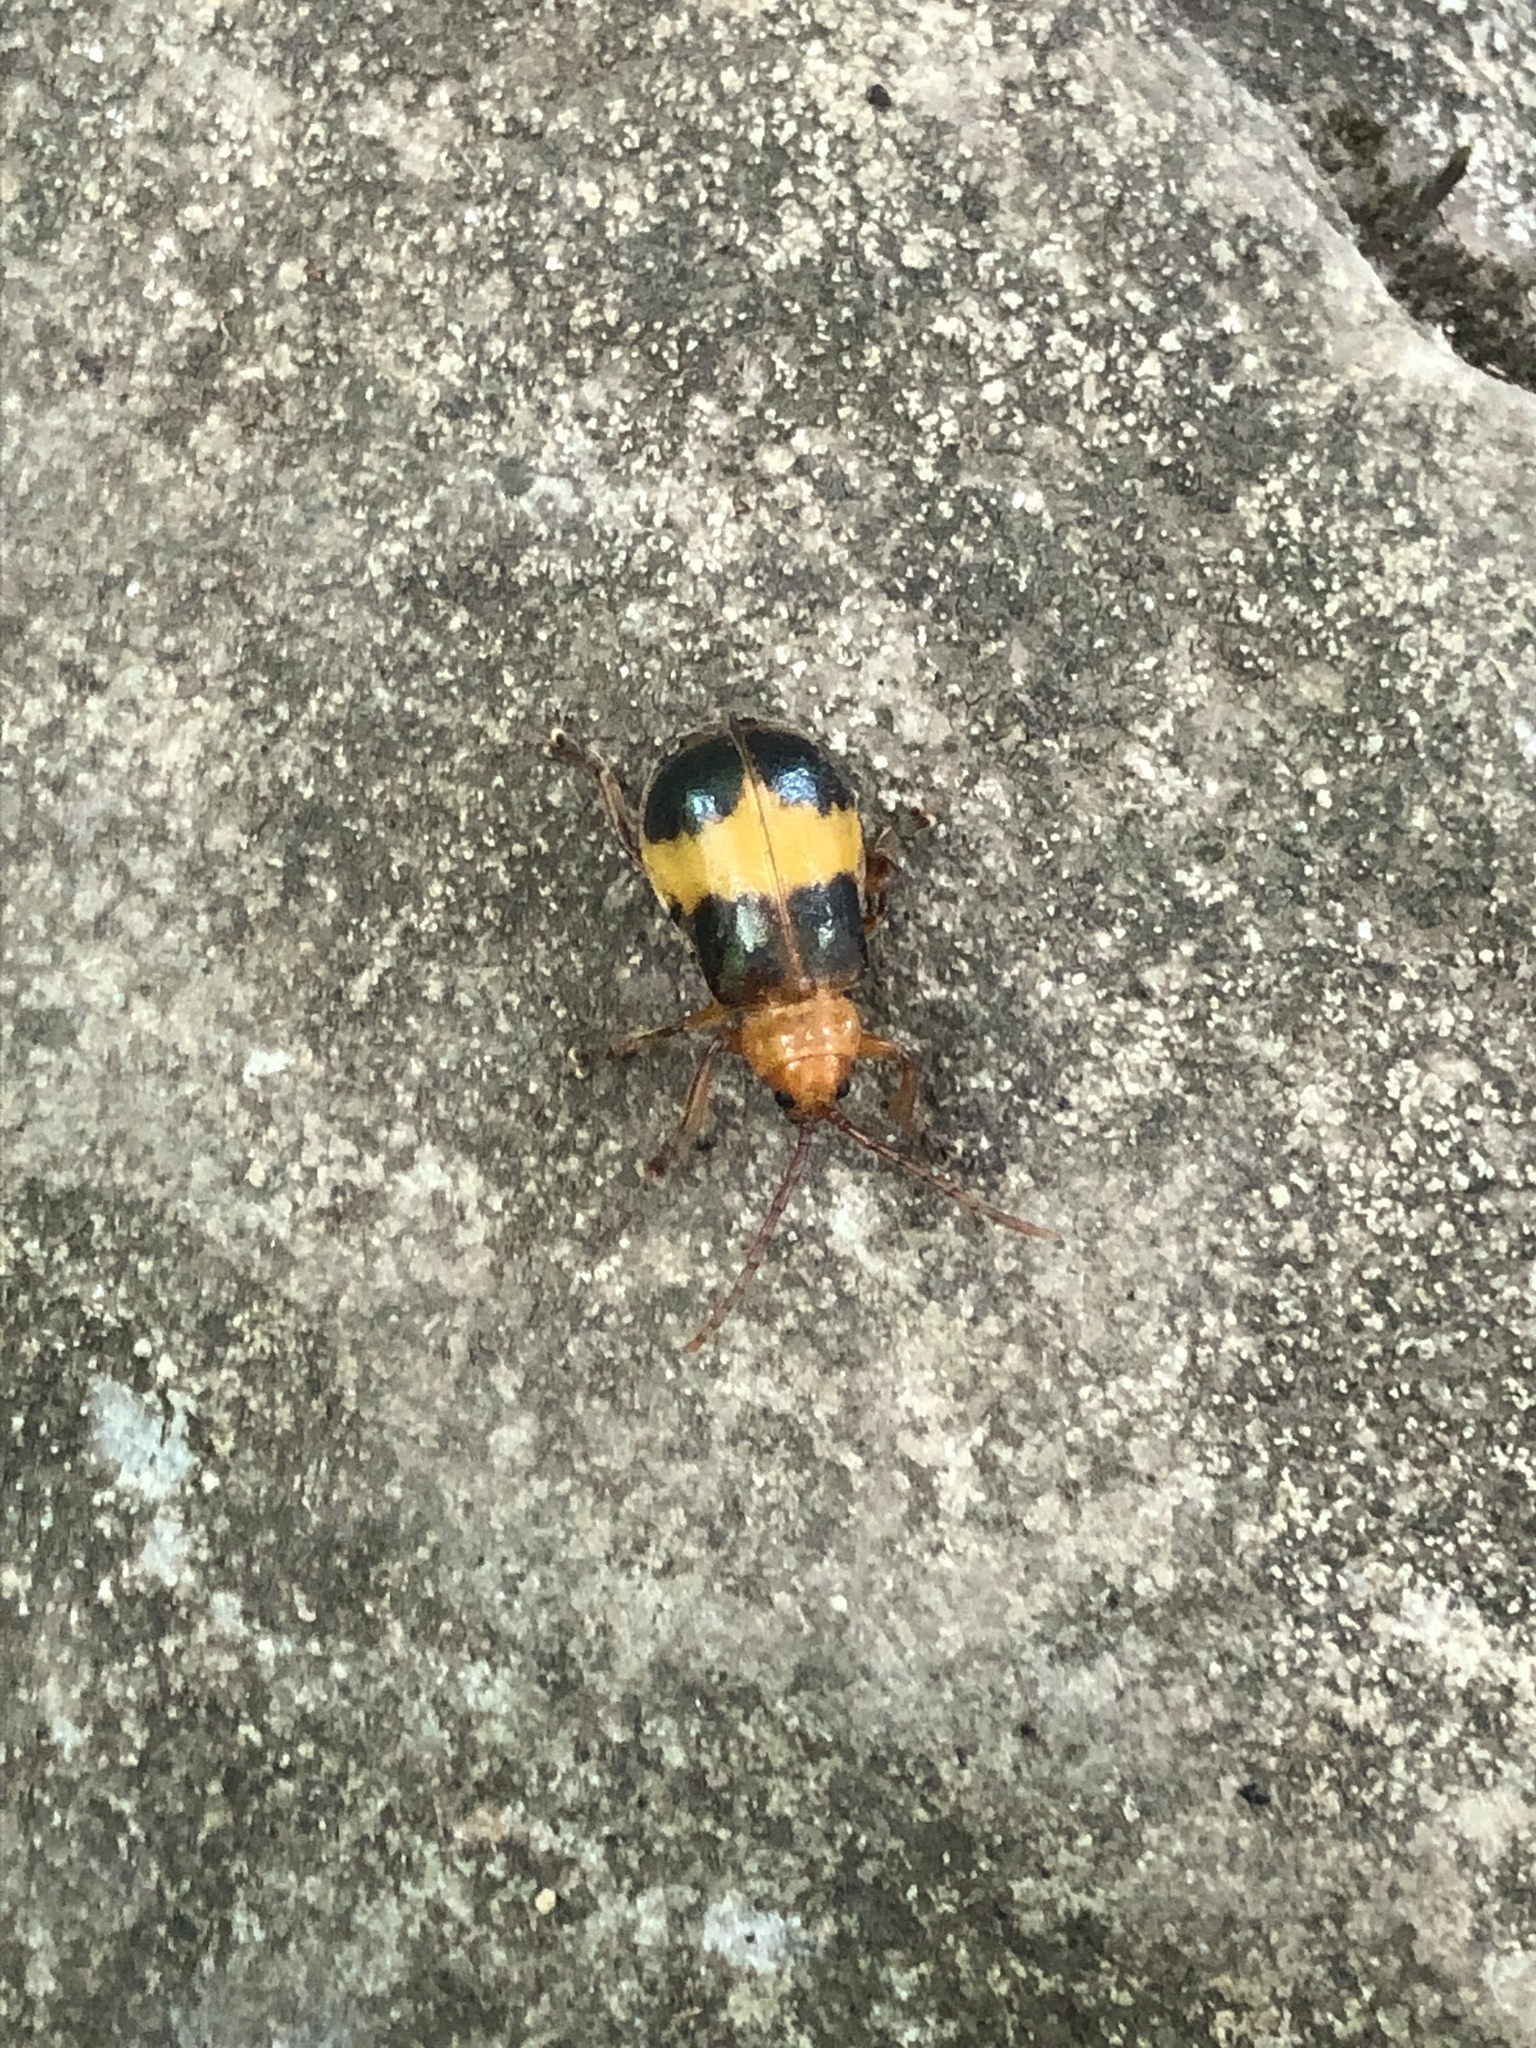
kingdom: Animalia
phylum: Arthropoda
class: Insecta
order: Coleoptera
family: Chrysomelidae
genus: Monocesta
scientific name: Monocesta coryli
